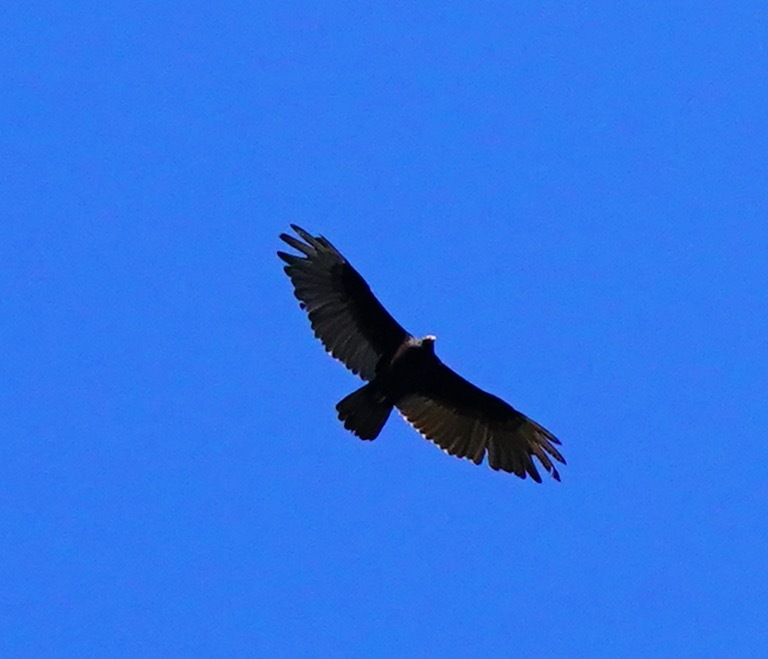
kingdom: Animalia
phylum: Chordata
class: Aves
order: Accipitriformes
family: Cathartidae
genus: Cathartes
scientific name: Cathartes aura
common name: Turkey vulture
